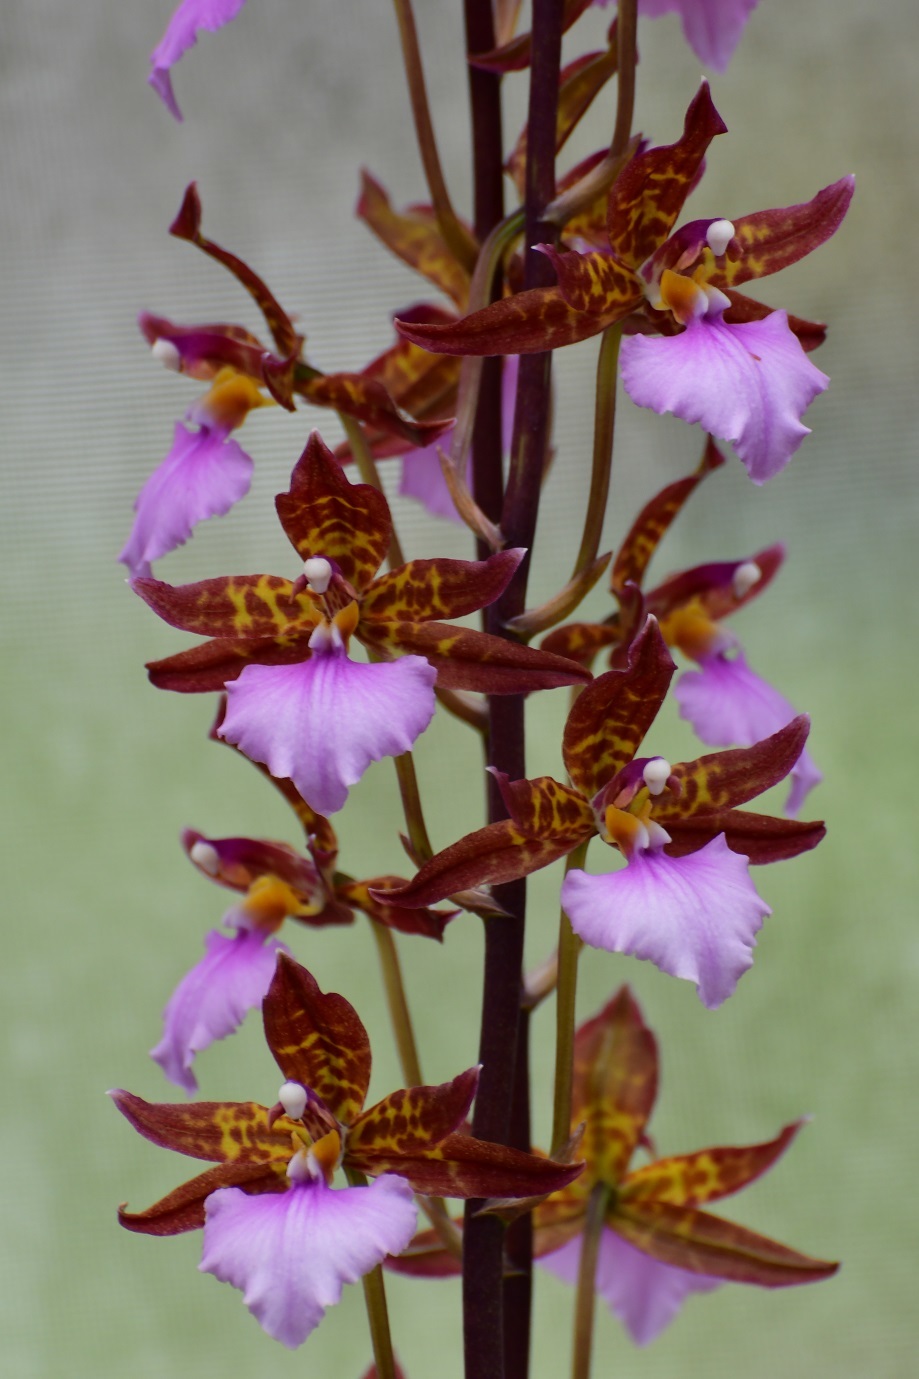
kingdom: Plantae
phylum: Tracheophyta
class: Liliopsida
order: Asparagales
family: Orchidaceae
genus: Rhynchostele
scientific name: Rhynchostele bictoniensis
